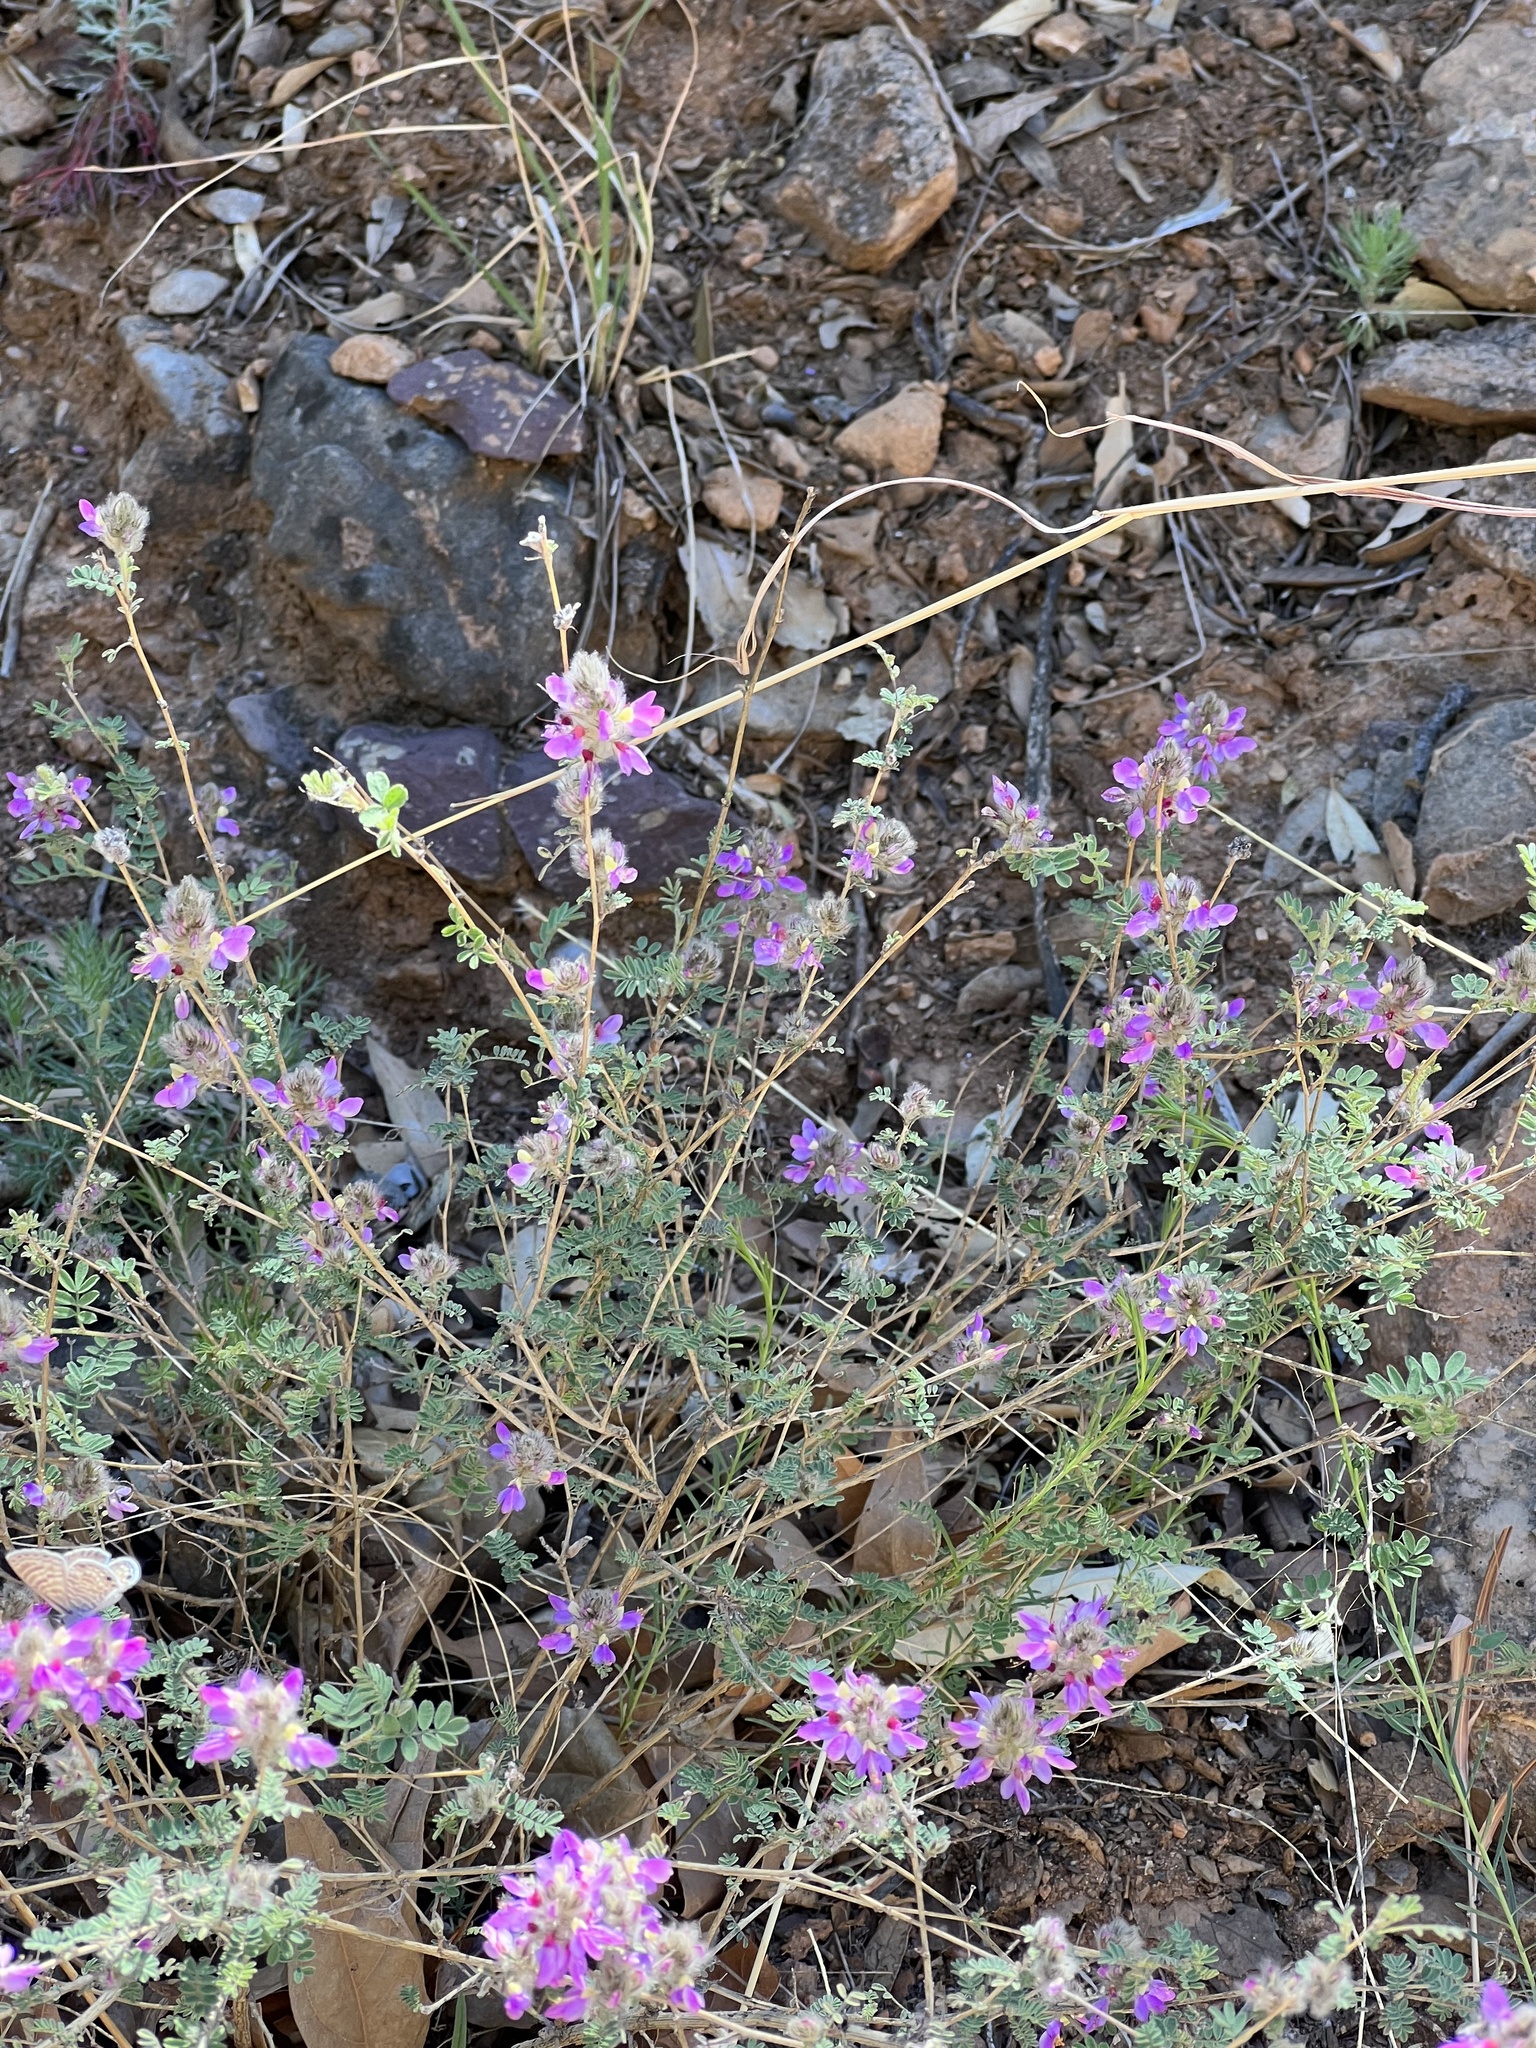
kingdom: Plantae
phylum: Tracheophyta
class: Magnoliopsida
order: Fabales
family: Fabaceae
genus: Dalea
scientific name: Dalea versicolor
